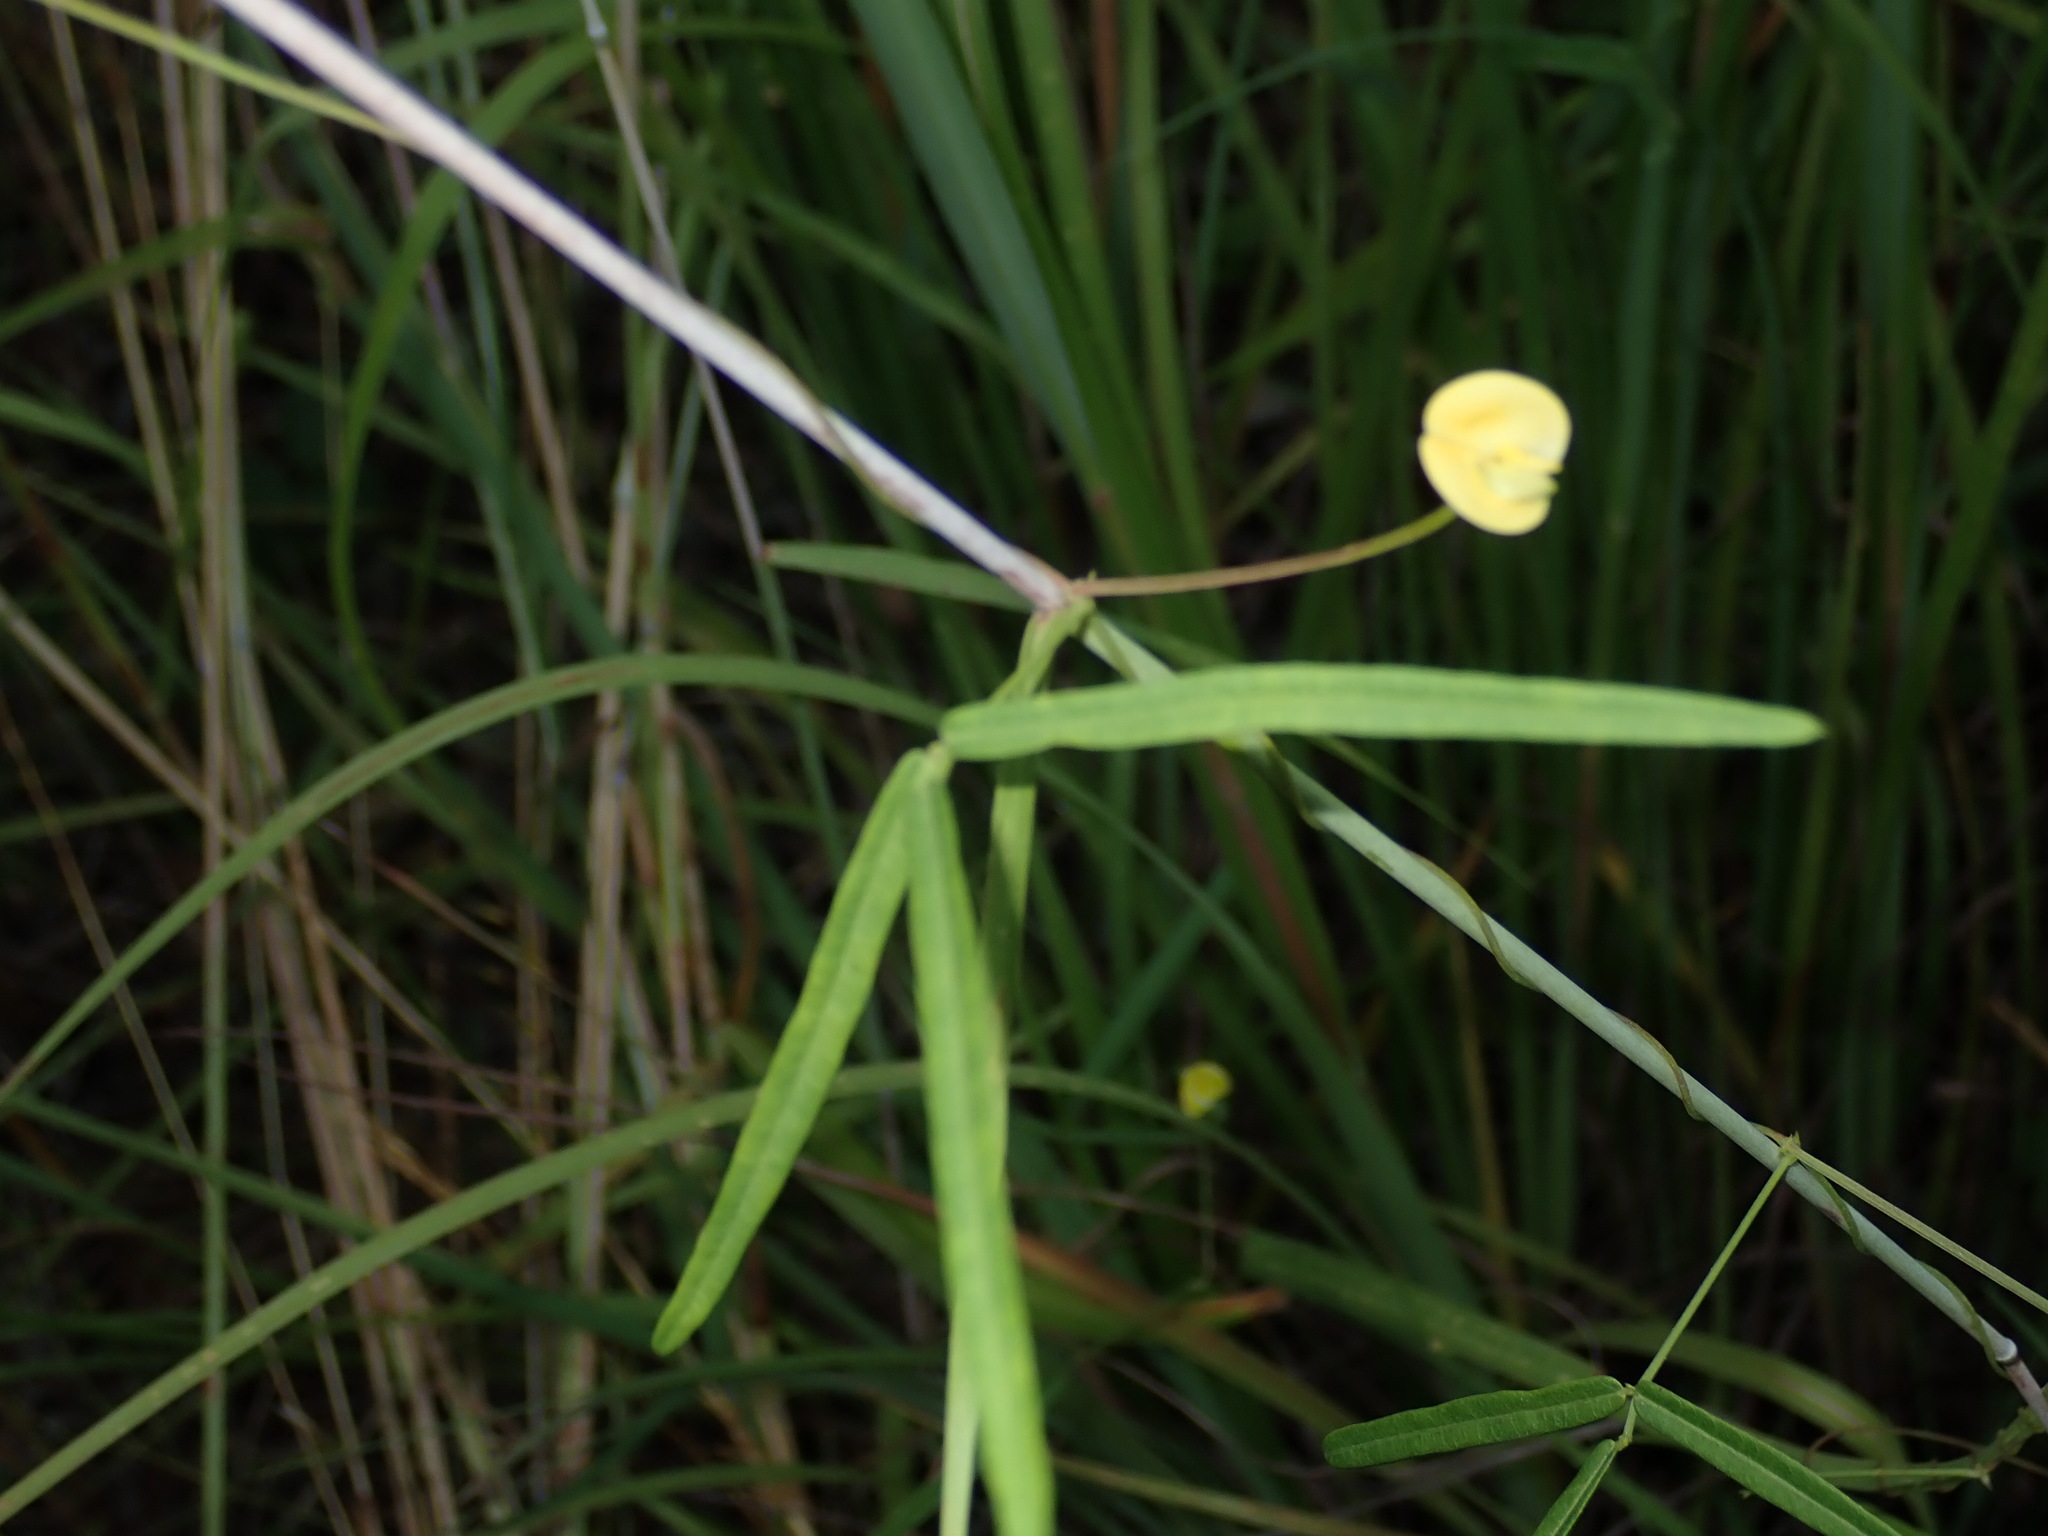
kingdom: Plantae
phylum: Tracheophyta
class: Magnoliopsida
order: Fabales
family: Fabaceae
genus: Vigna
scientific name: Vigna lanceolata
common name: Maloga-bean
